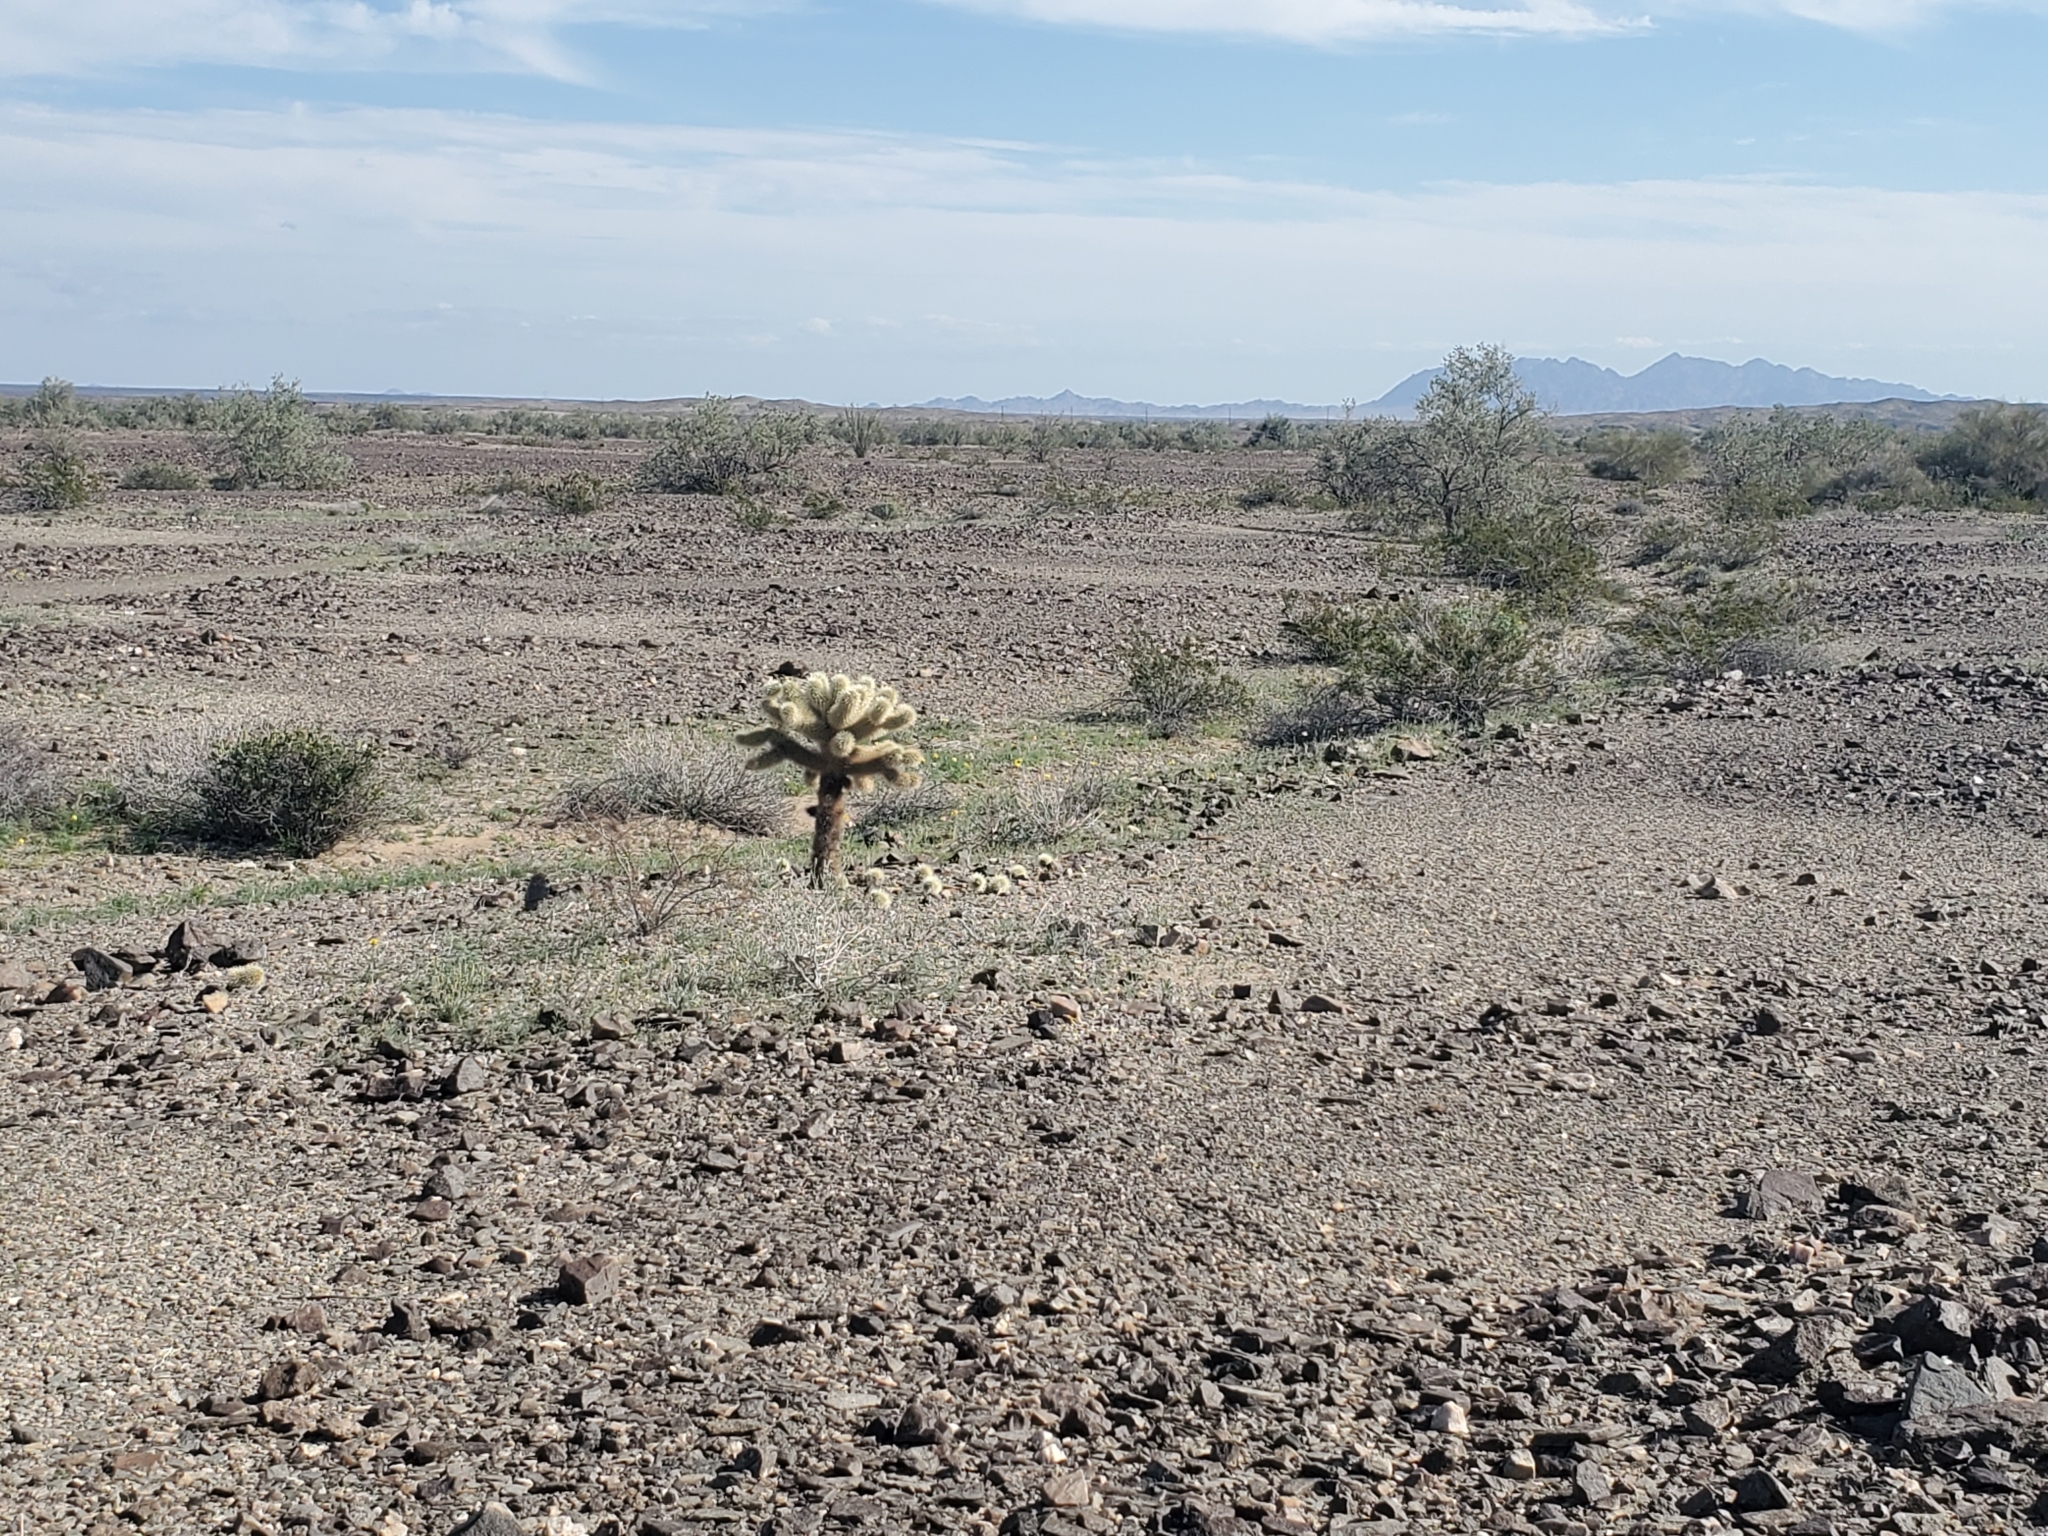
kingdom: Plantae
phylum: Tracheophyta
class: Magnoliopsida
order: Caryophyllales
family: Cactaceae
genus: Cylindropuntia
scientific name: Cylindropuntia fosbergii
